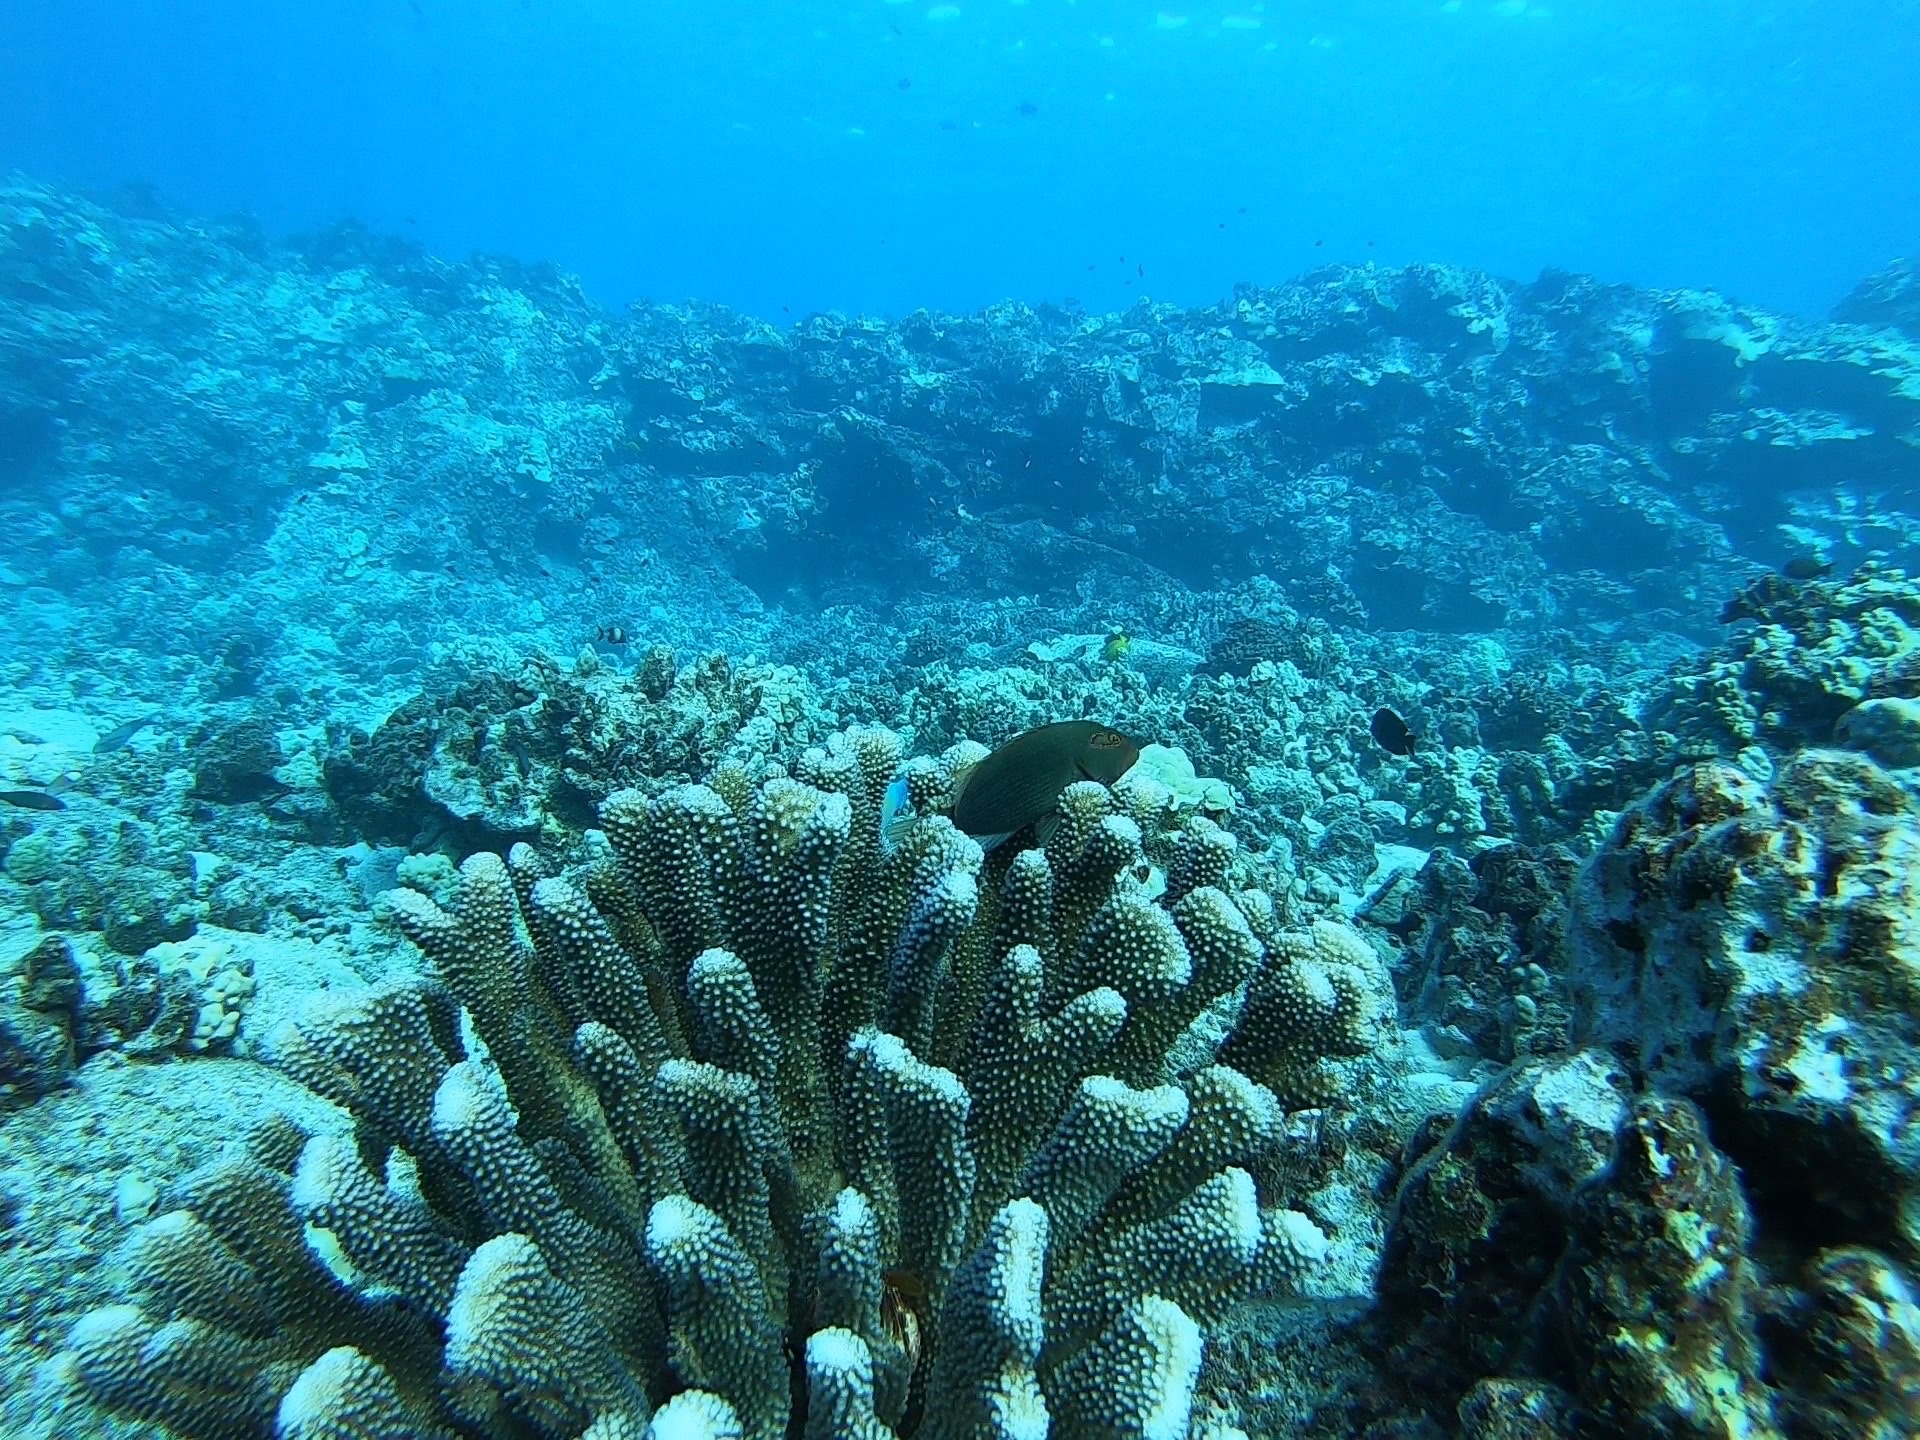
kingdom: Animalia
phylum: Chordata
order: Perciformes
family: Cirrhitidae
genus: Paracirrhites
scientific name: Paracirrhites arcatus
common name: Arc-eye hawkfish
